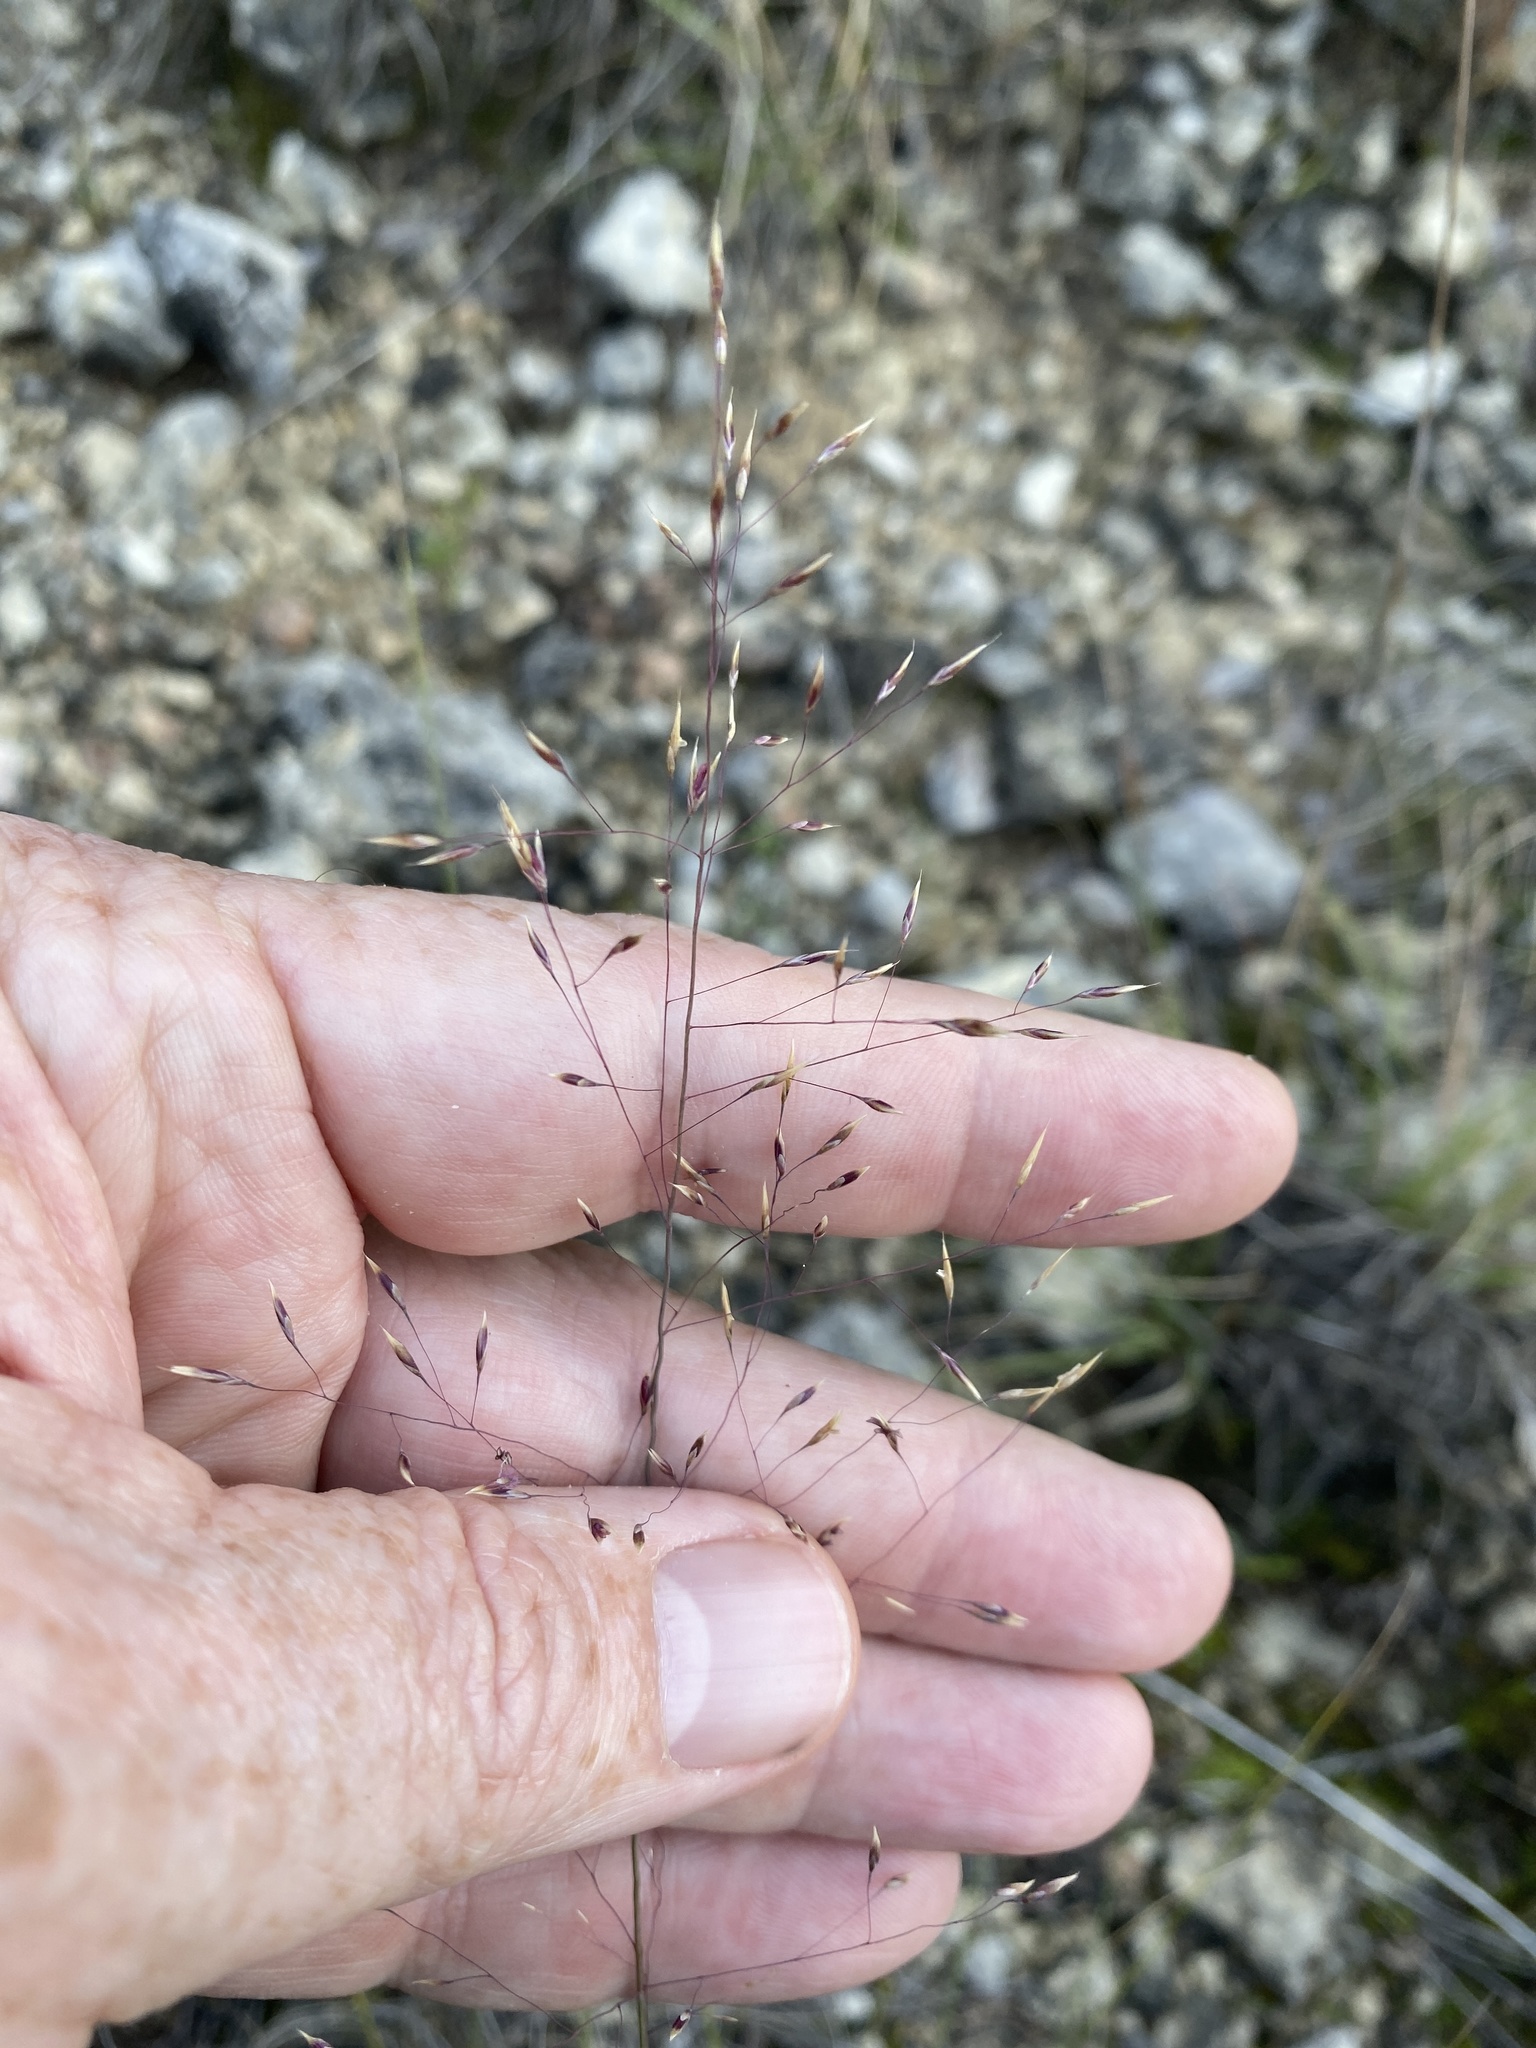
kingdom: Plantae
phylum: Tracheophyta
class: Liliopsida
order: Poales
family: Poaceae
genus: Muhlenbergia
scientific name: Muhlenbergia reverchonii
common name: Seep muhly
